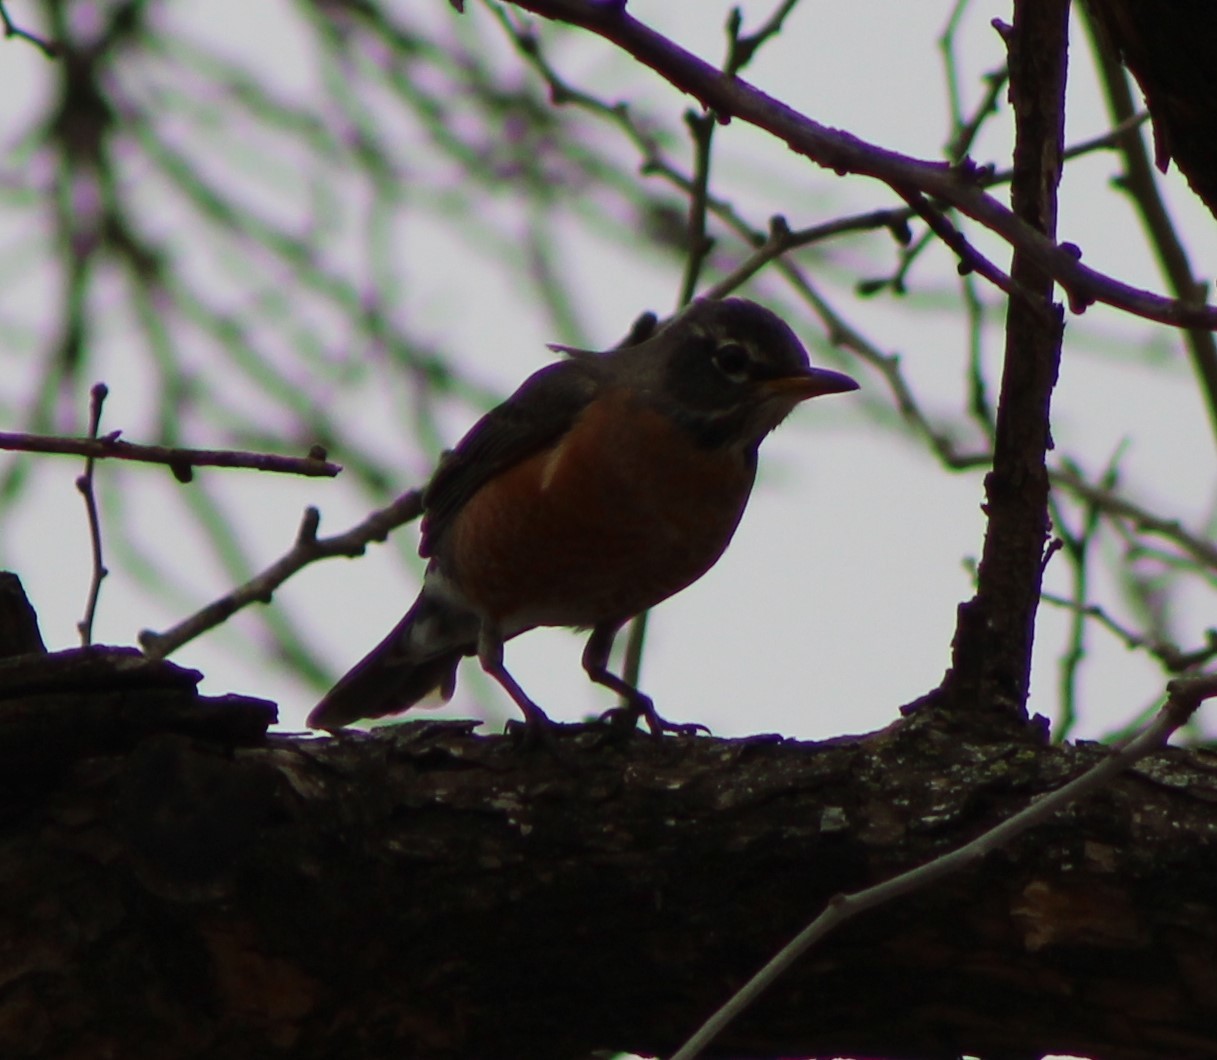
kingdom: Animalia
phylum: Chordata
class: Aves
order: Passeriformes
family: Turdidae
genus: Turdus
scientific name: Turdus migratorius
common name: American robin
